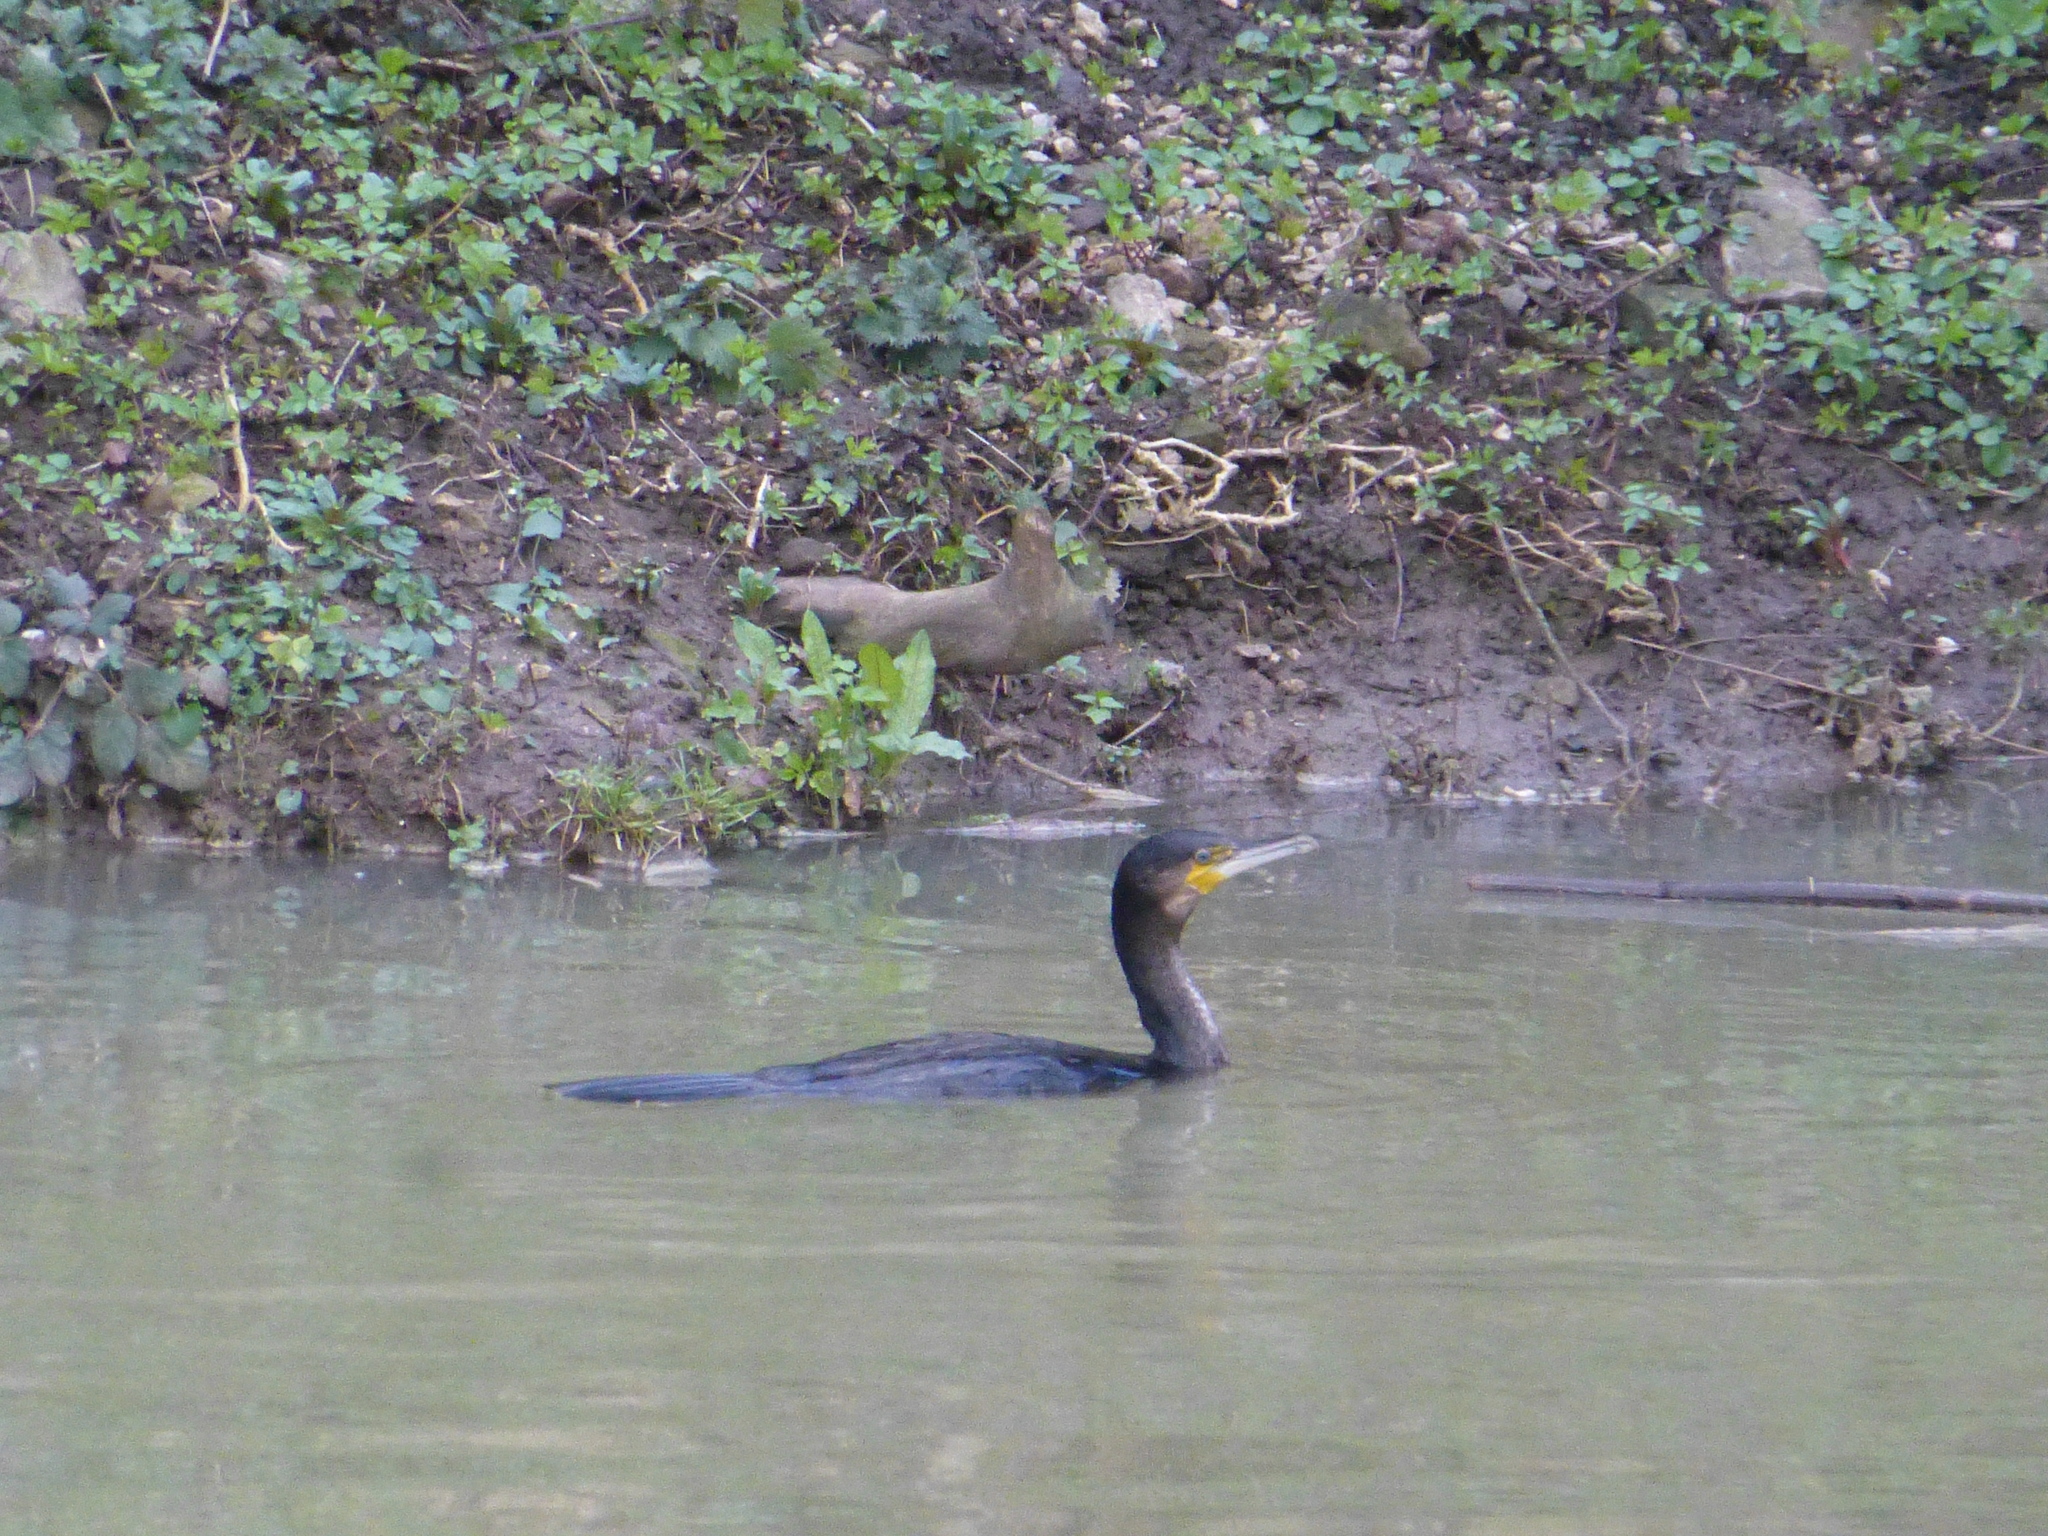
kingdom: Animalia
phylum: Chordata
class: Aves
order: Suliformes
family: Phalacrocoracidae
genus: Phalacrocorax
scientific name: Phalacrocorax carbo
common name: Great cormorant
